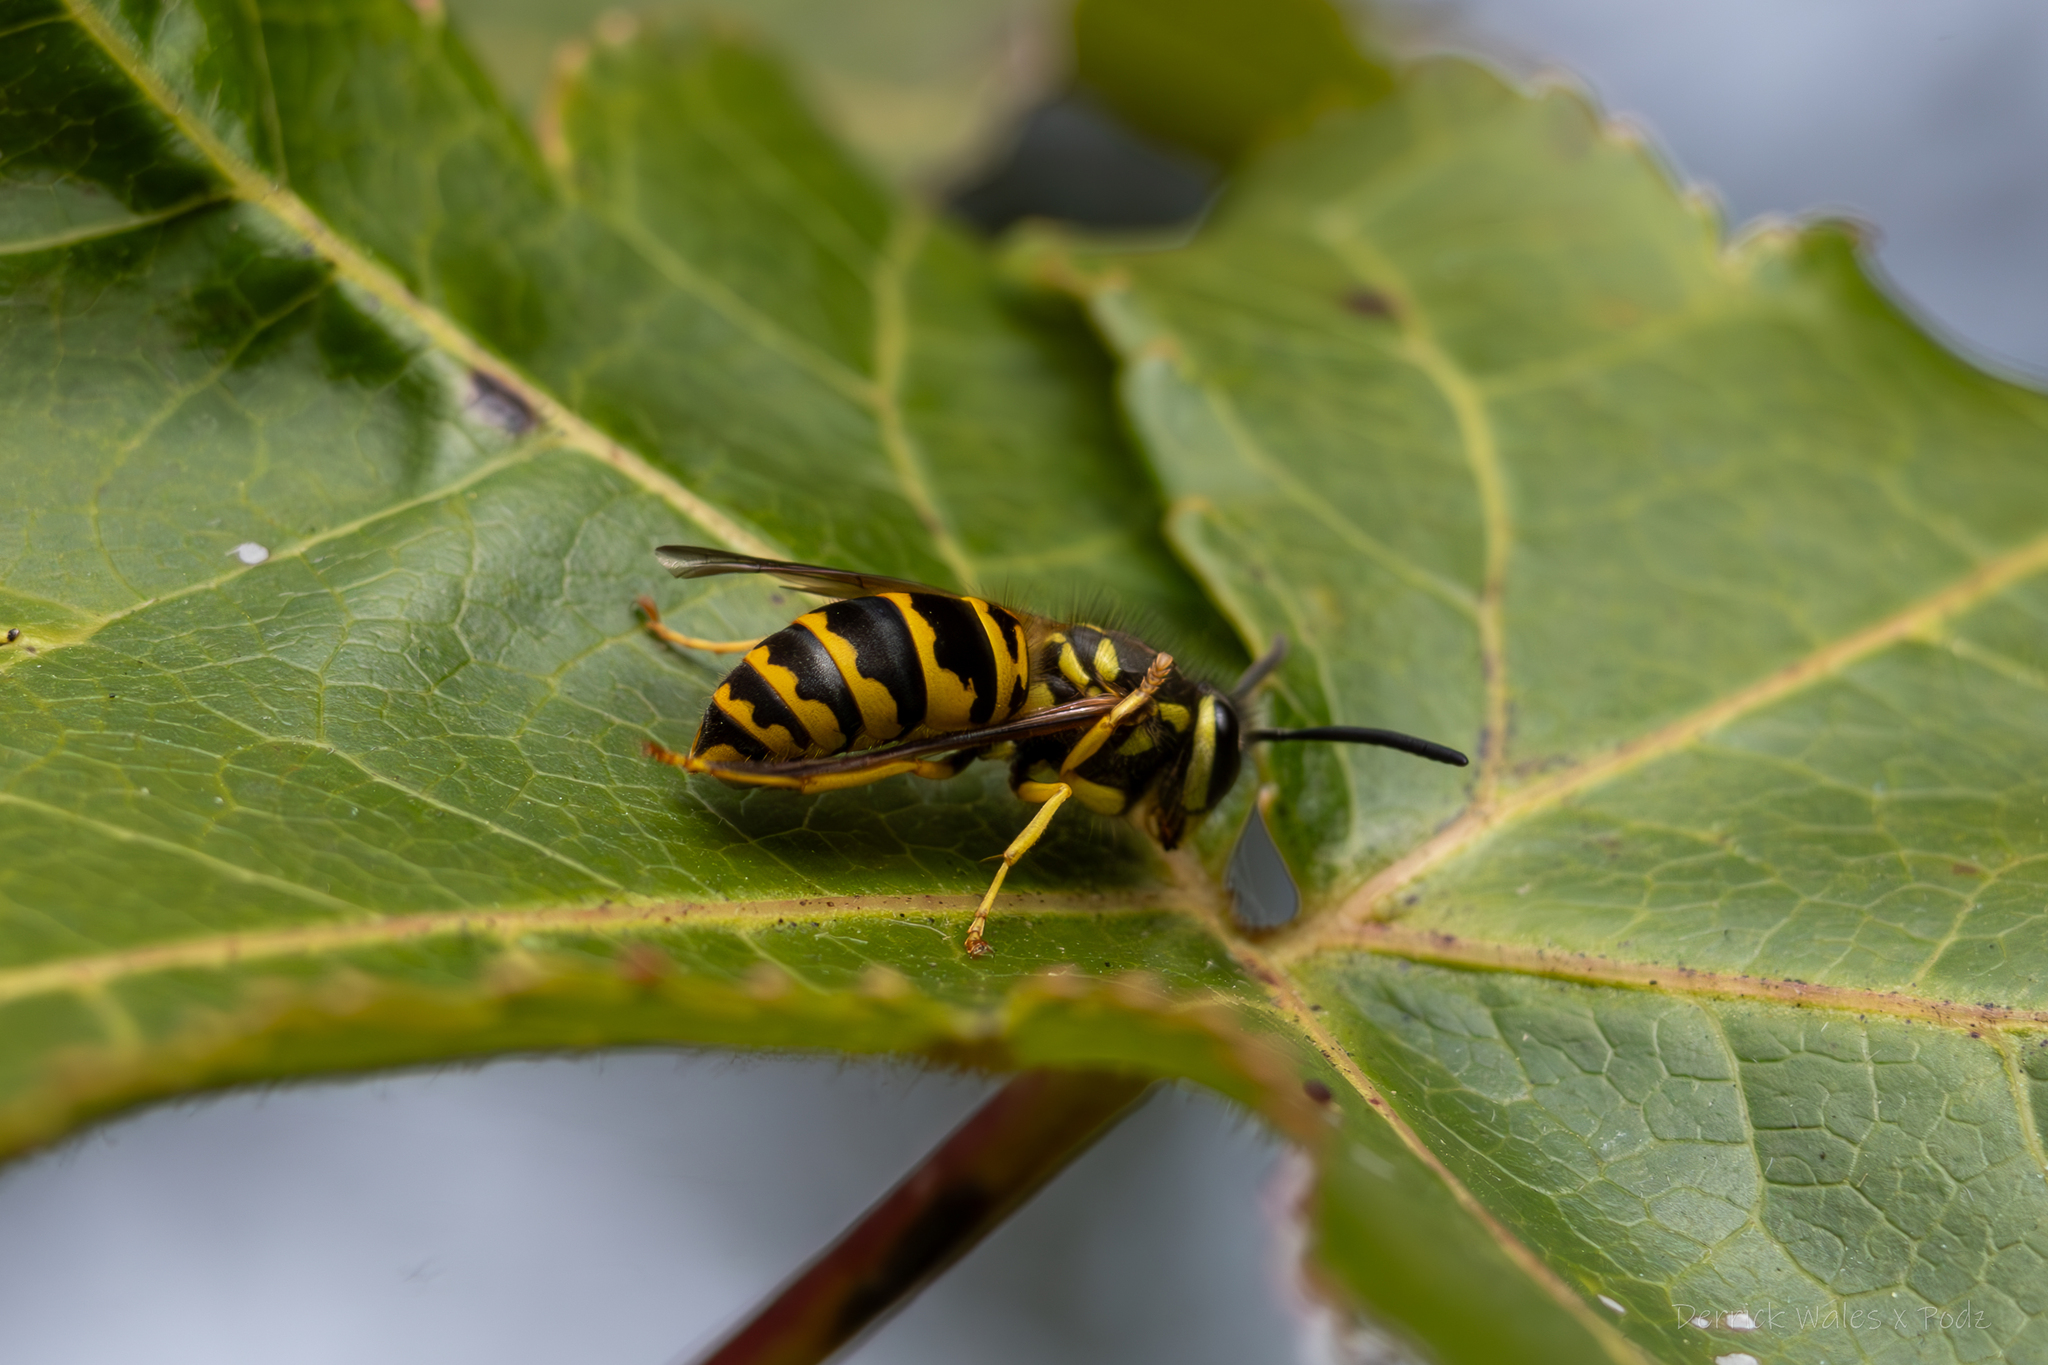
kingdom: Animalia
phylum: Arthropoda
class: Insecta
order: Hymenoptera
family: Vespidae
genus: Vespula
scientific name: Vespula maculifrons
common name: Eastern yellowjacket
